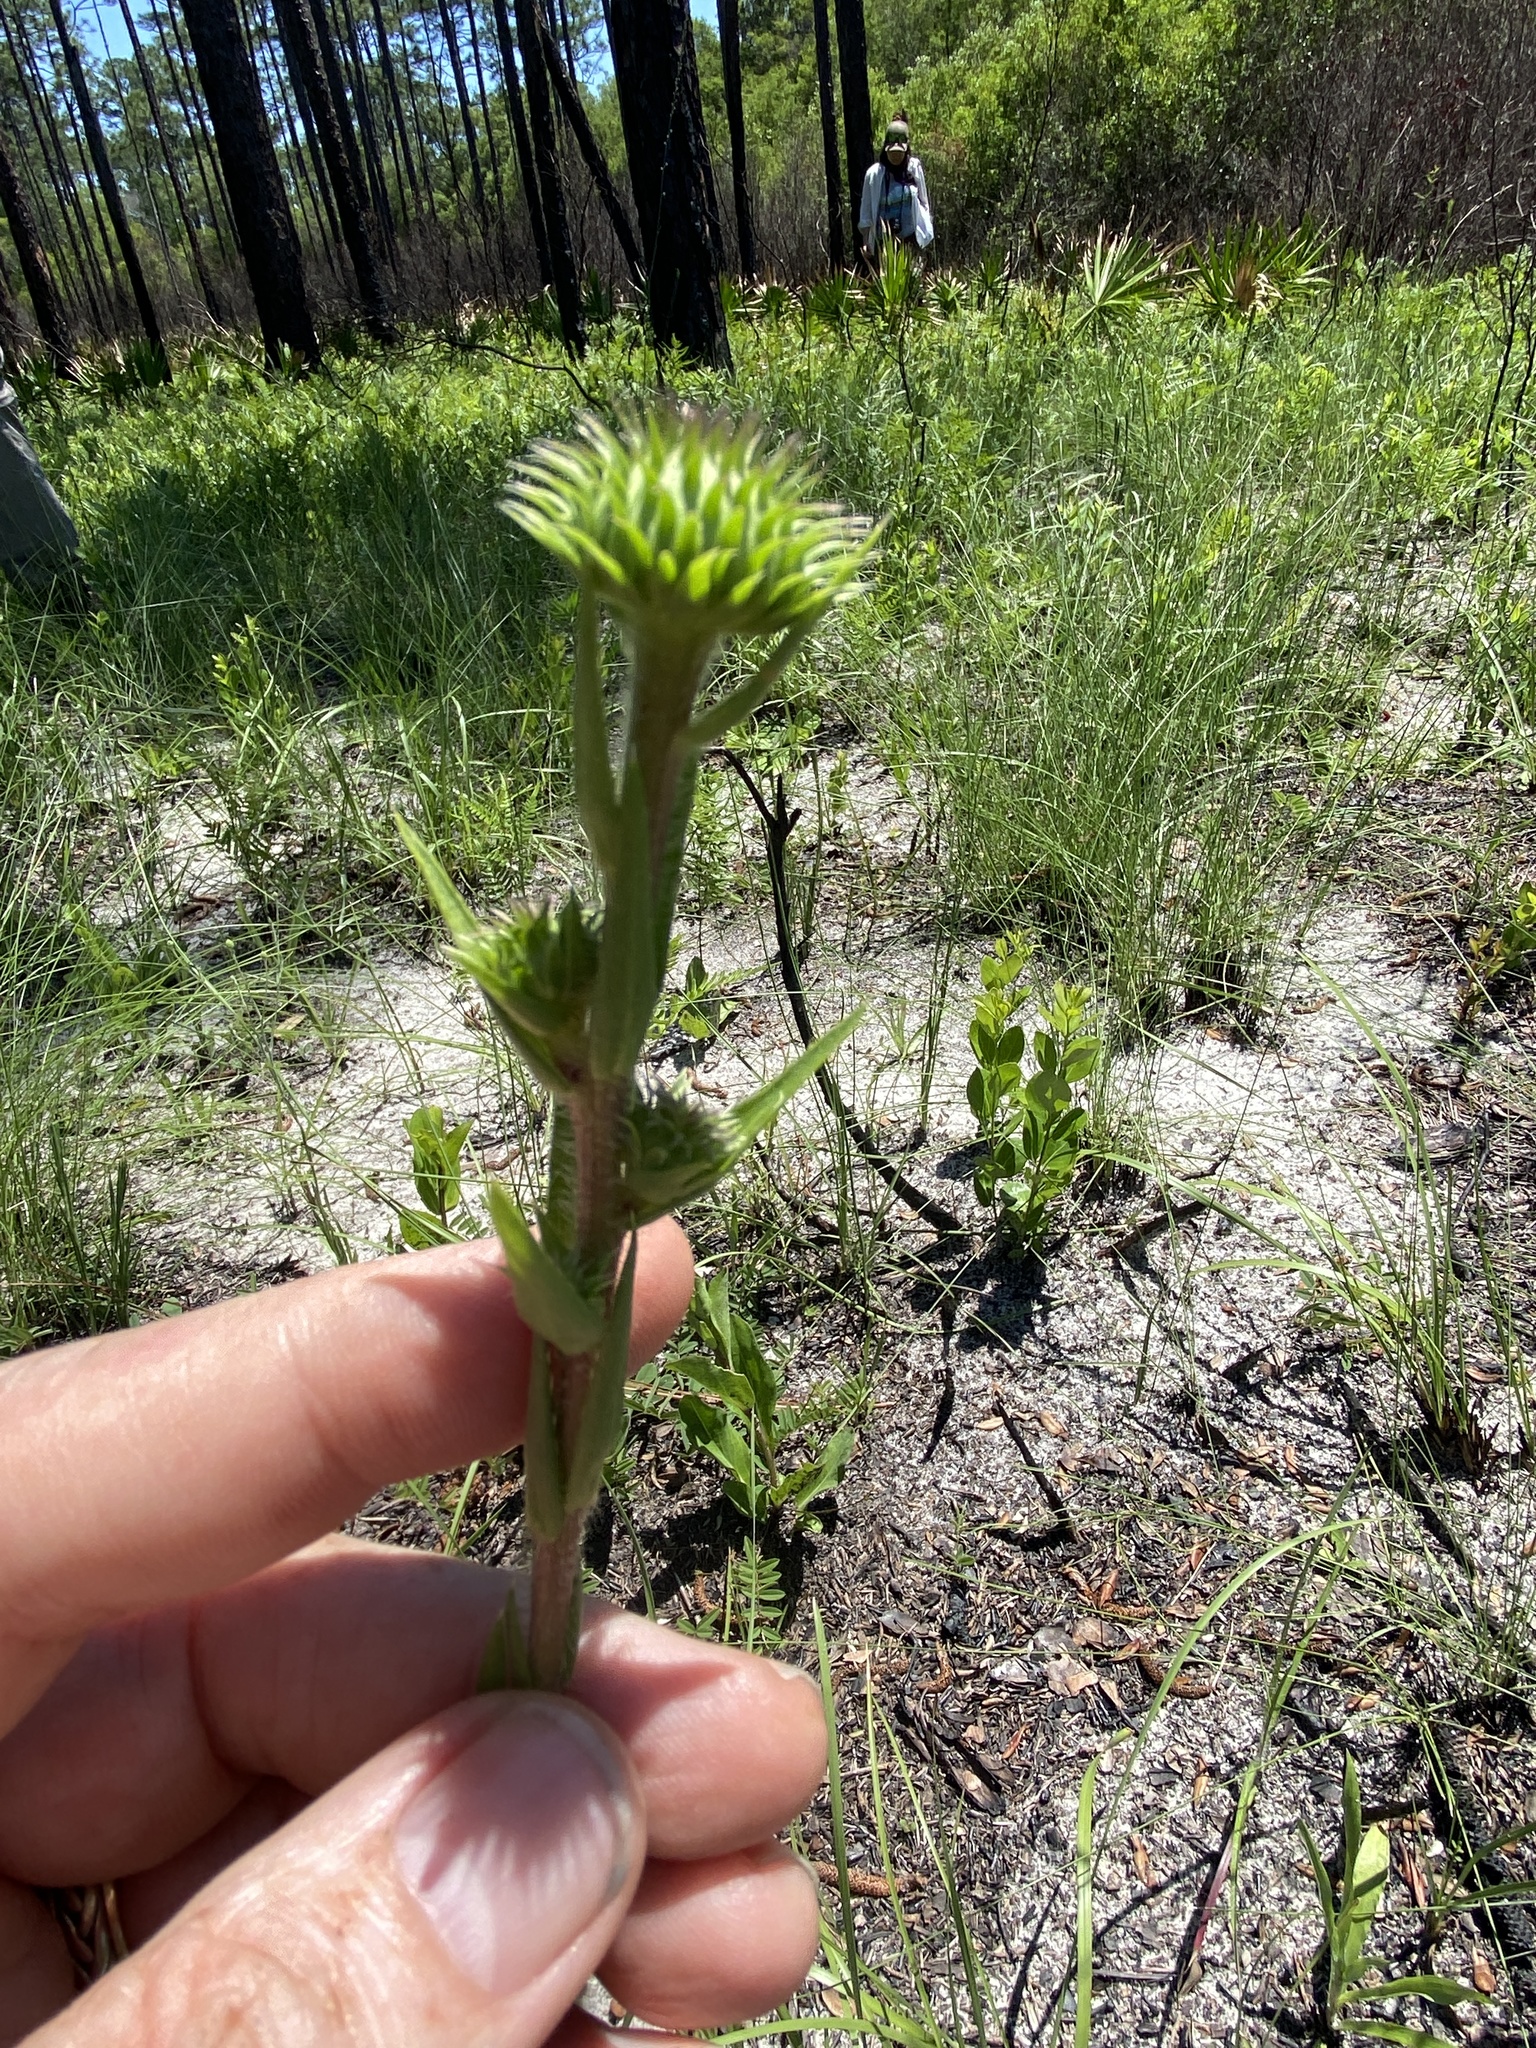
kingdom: Plantae
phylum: Tracheophyta
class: Magnoliopsida
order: Asterales
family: Asteraceae
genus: Eurybia
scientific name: Eurybia eryngiifolia
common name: Thistle-leaf aster
